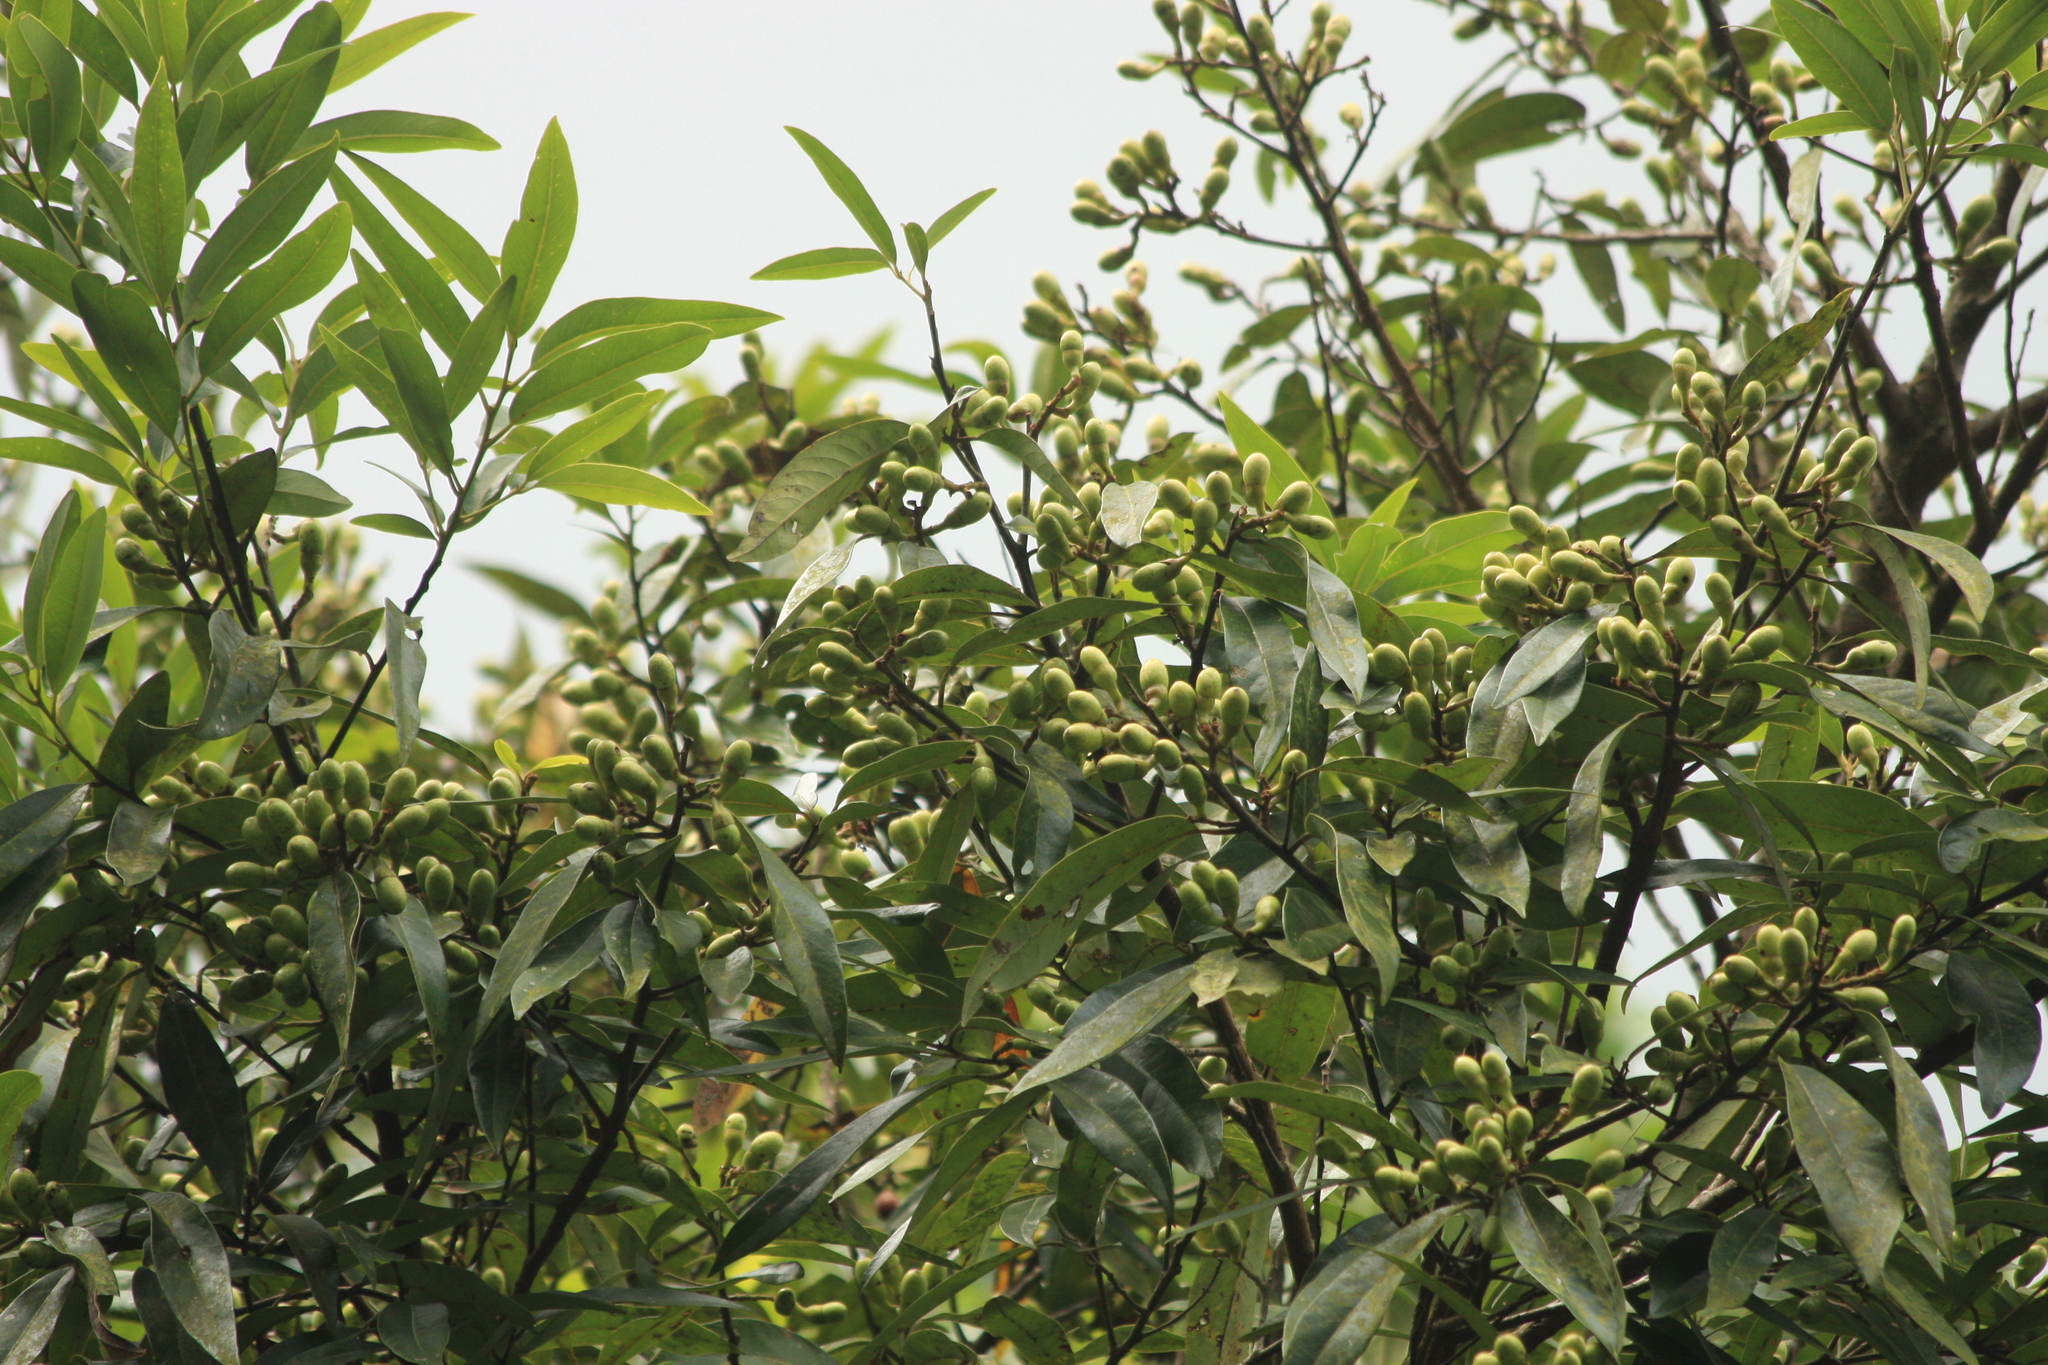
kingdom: Plantae
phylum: Tracheophyta
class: Magnoliopsida
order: Laurales
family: Lauraceae
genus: Litsea
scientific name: Litsea stocksii
